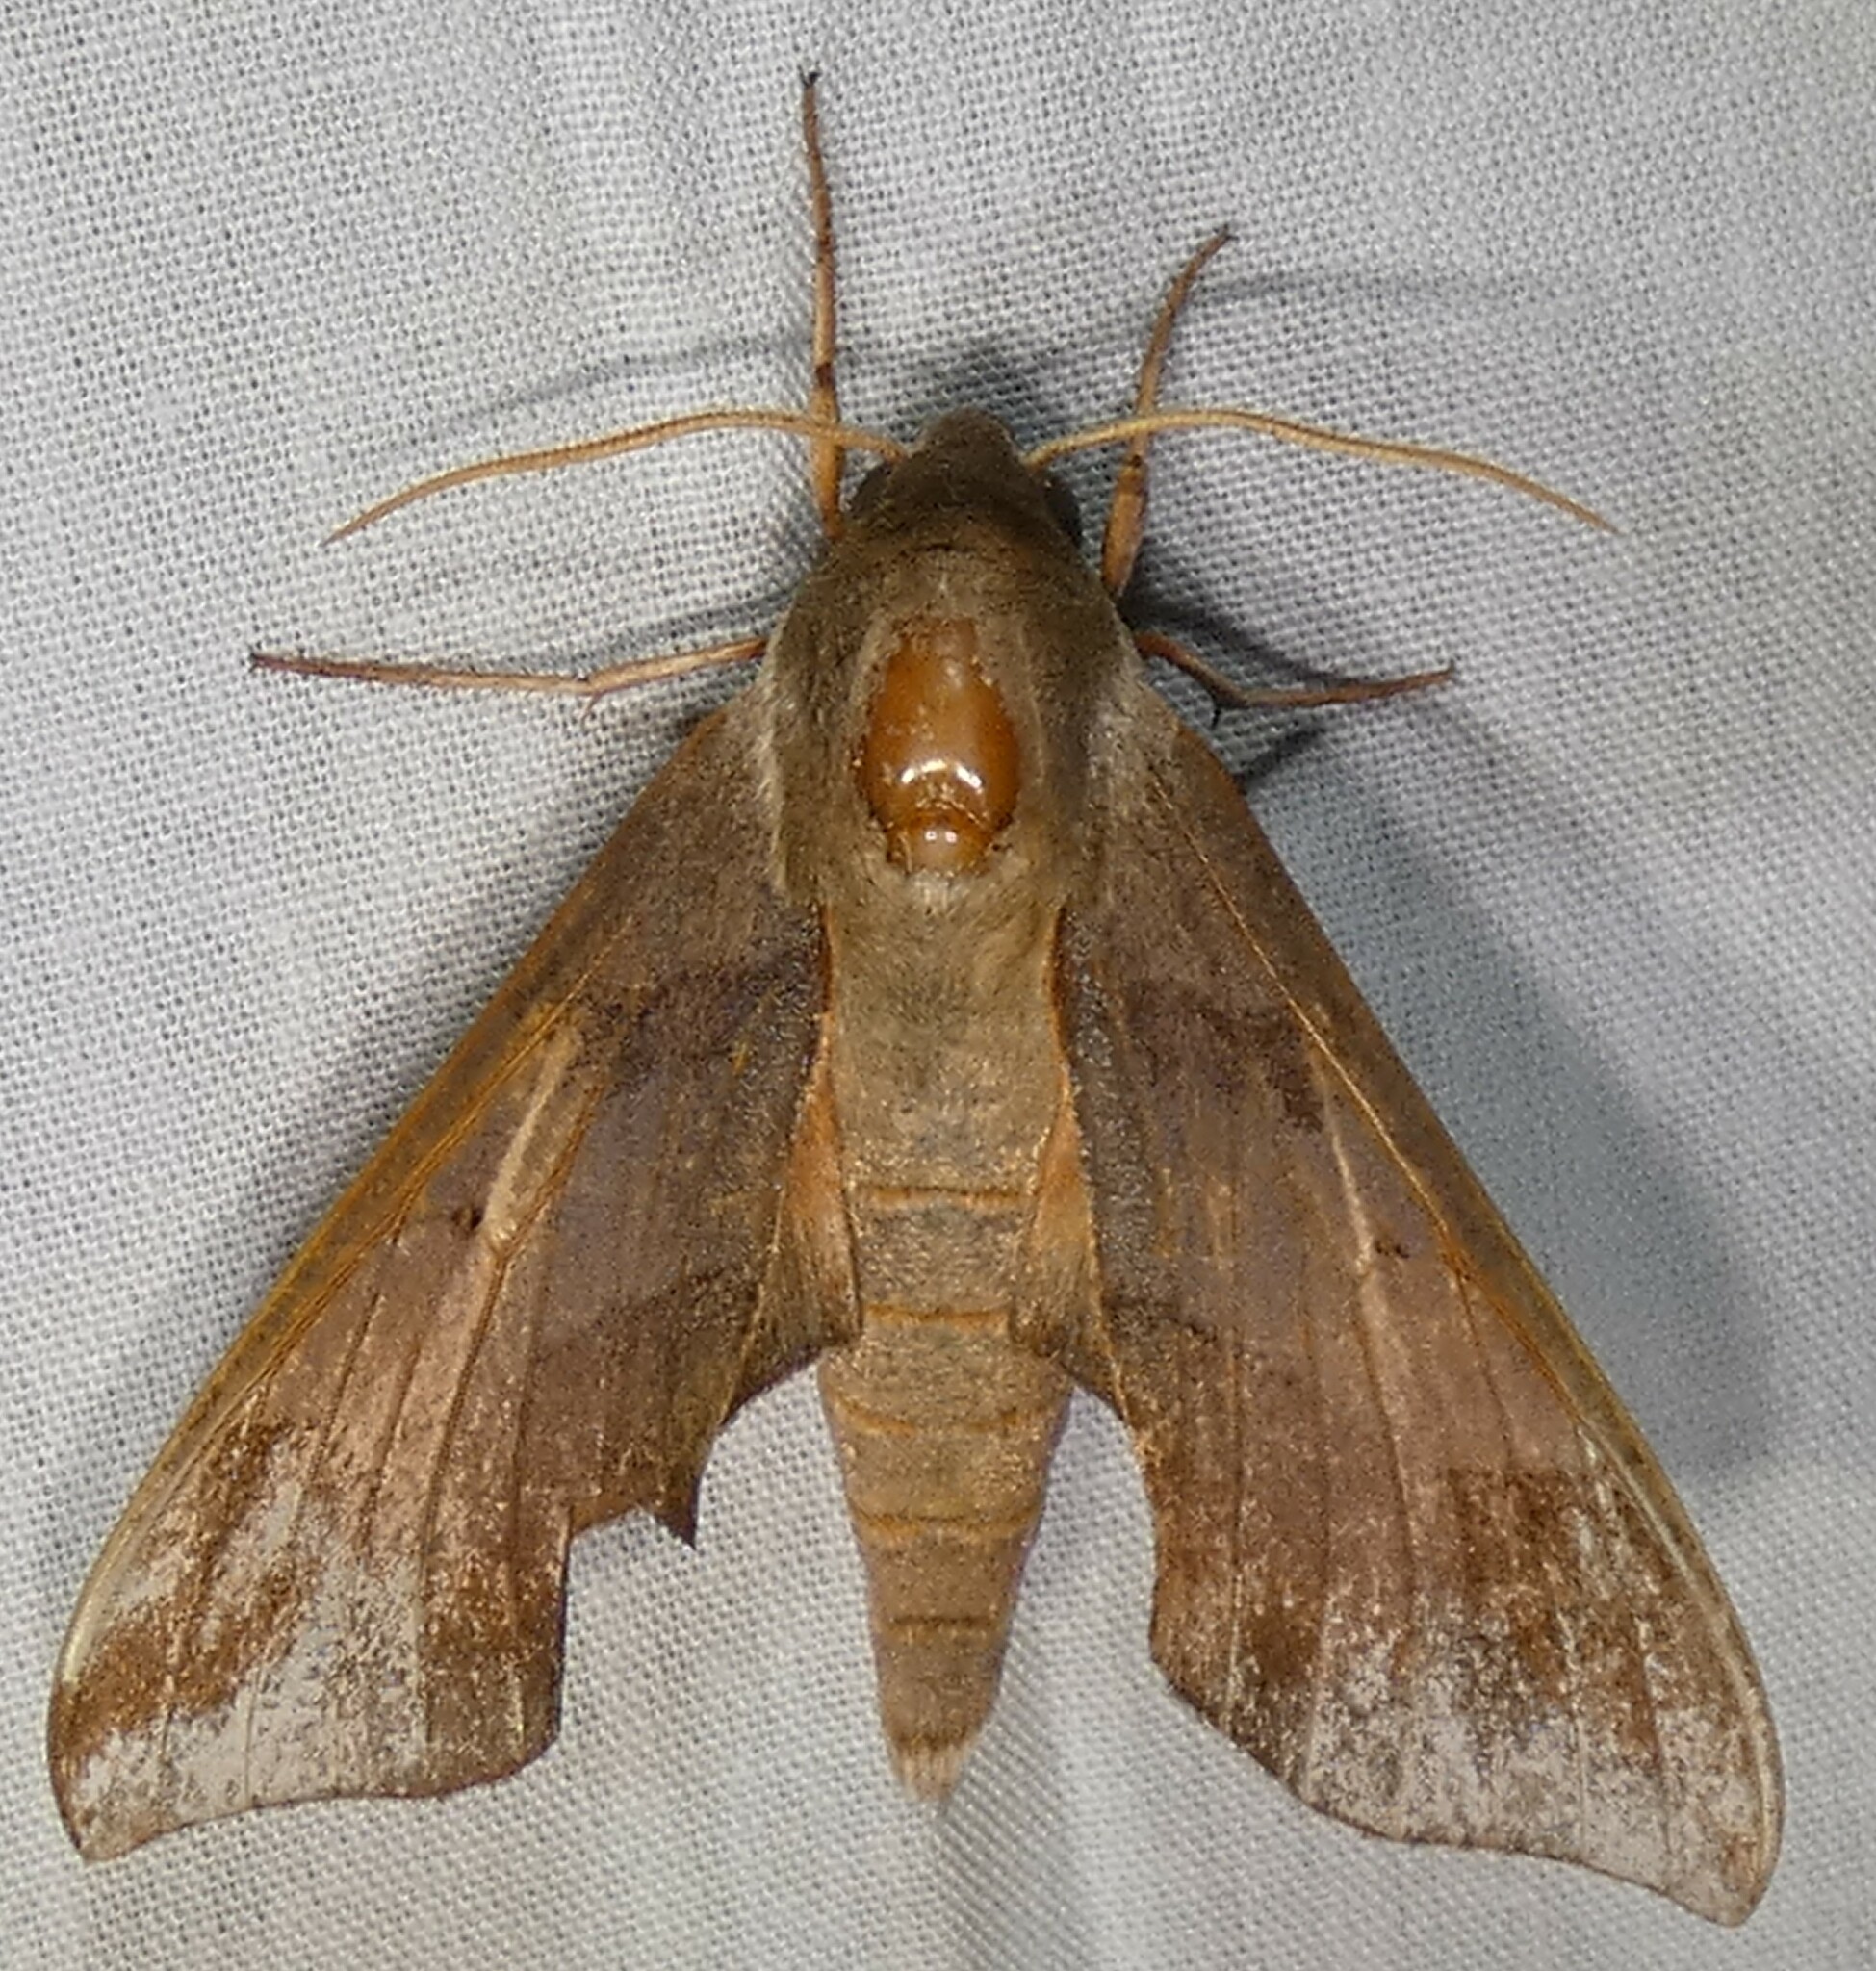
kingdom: Animalia
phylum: Arthropoda
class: Insecta
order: Lepidoptera
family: Sphingidae
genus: Darapsa
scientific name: Darapsa myron
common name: Hog sphinx
